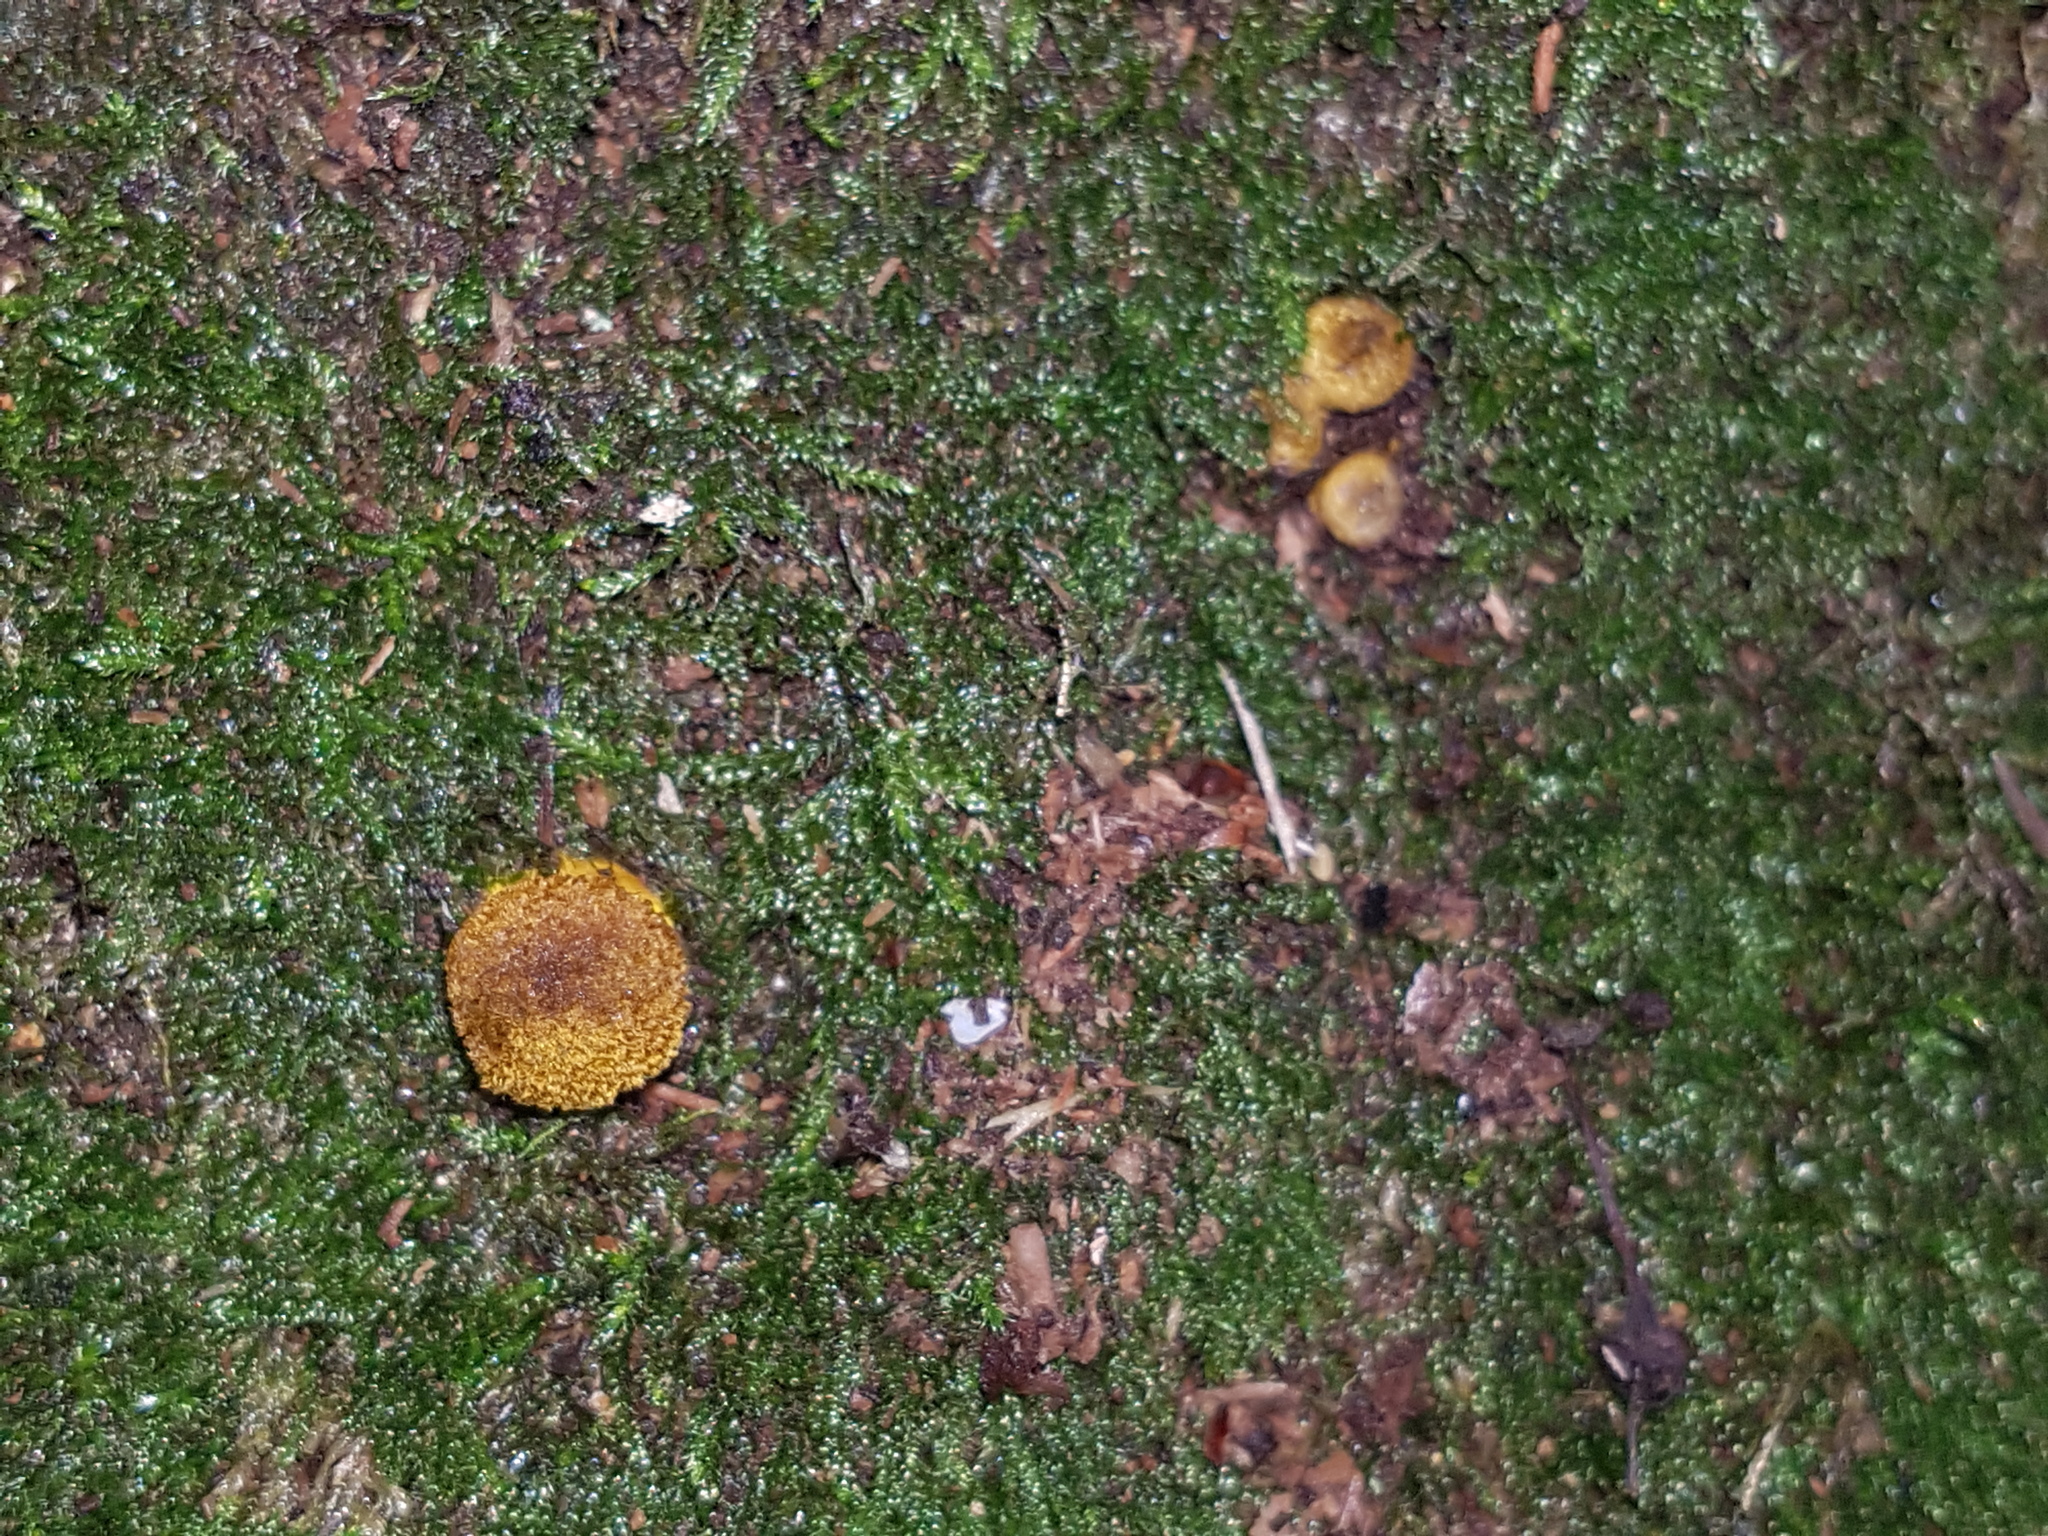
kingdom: Fungi
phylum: Basidiomycota
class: Agaricomycetes
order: Agaricales
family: Physalacriaceae
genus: Armillaria
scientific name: Armillaria gallica
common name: Bulbous honey fungus
